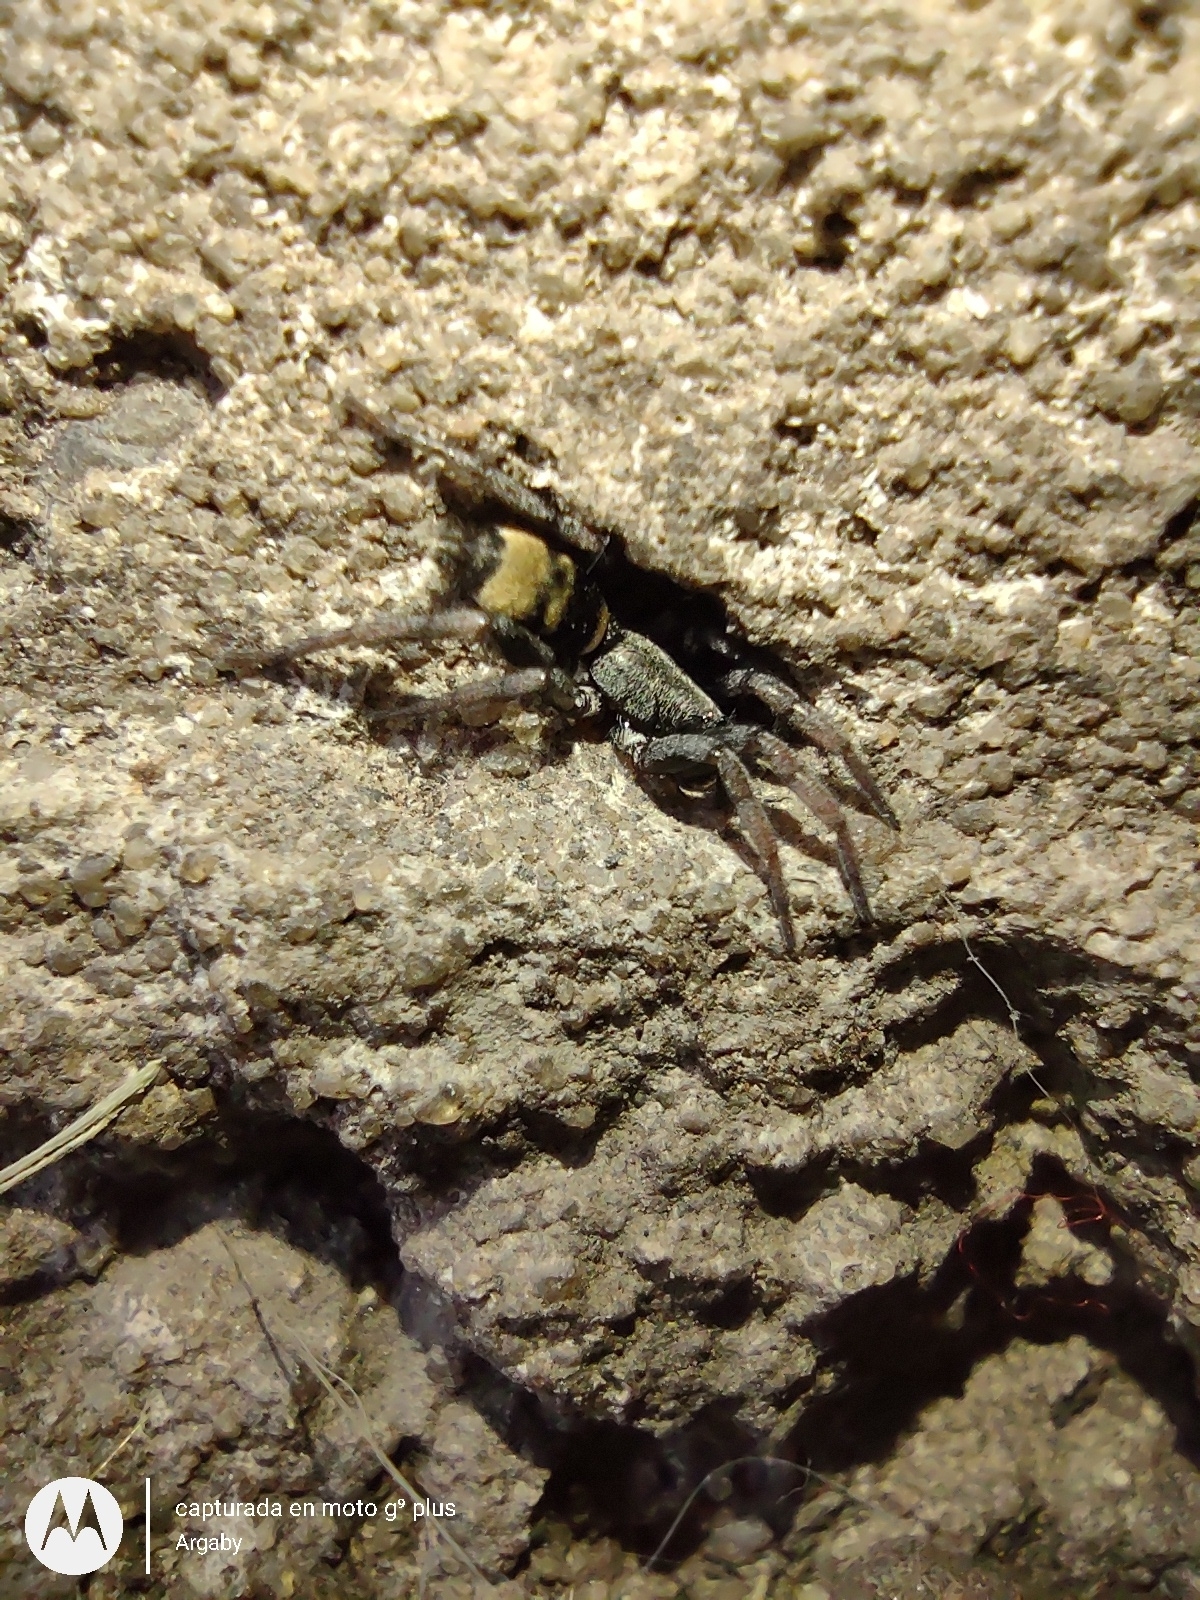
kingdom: Animalia
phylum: Arthropoda
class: Arachnida
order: Araneae
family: Gnaphosidae
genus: Latonigena
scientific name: Latonigena auricomis
